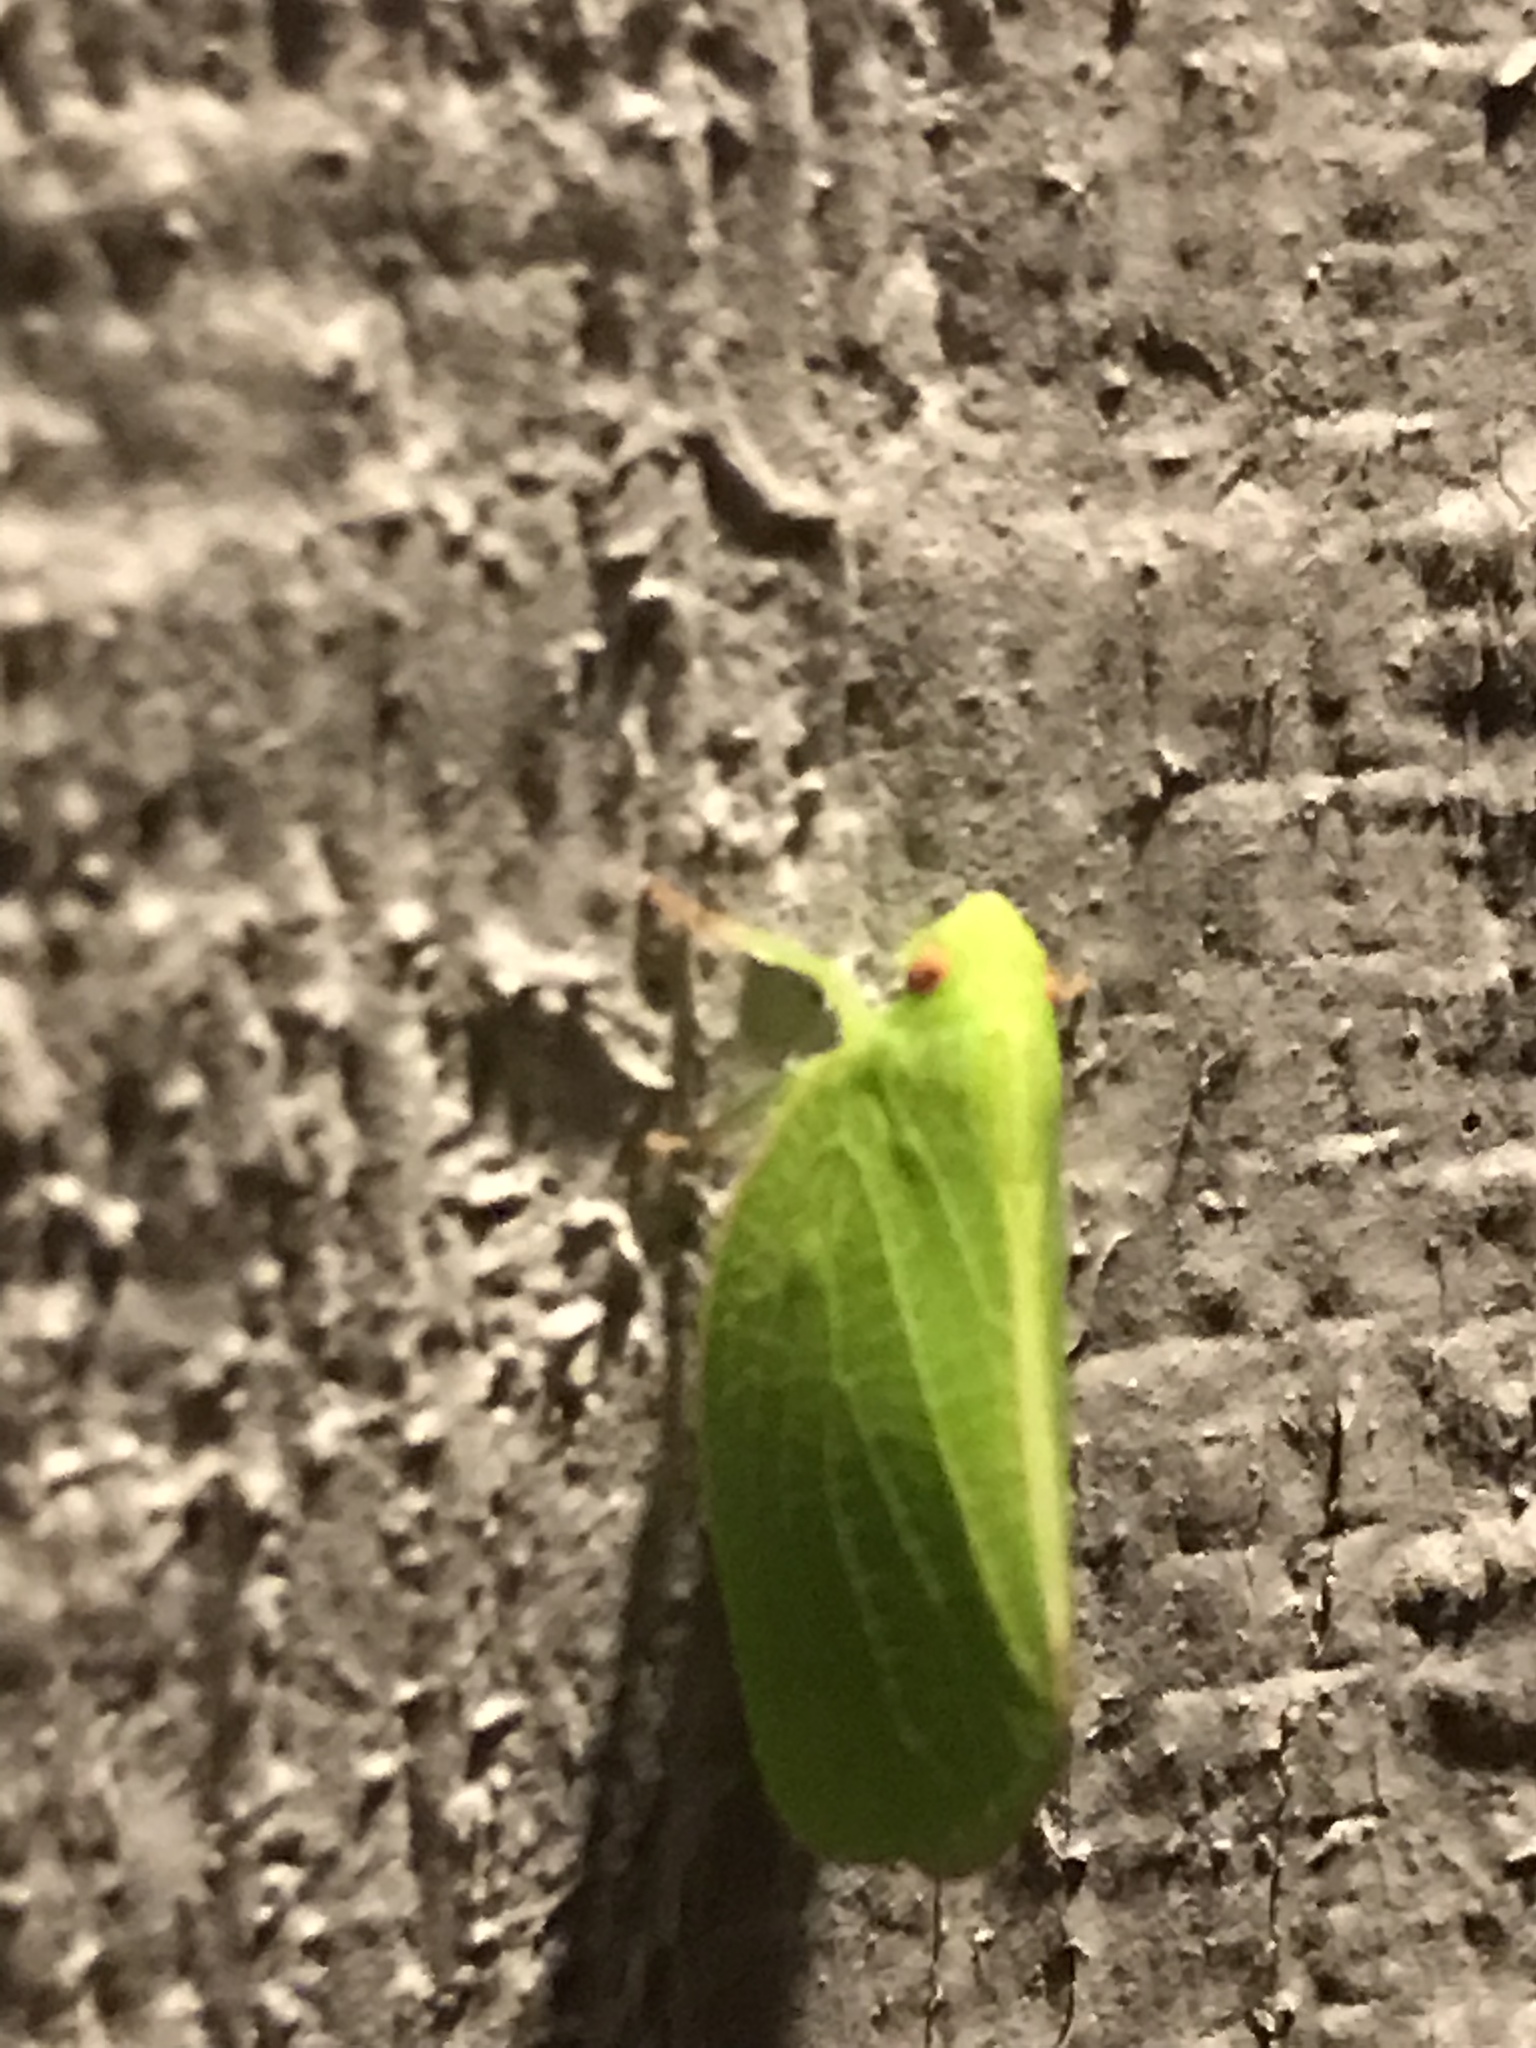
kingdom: Animalia
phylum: Arthropoda
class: Insecta
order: Hemiptera
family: Acanaloniidae
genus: Acanalonia
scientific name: Acanalonia conica
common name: Green cone-headed planthopper
